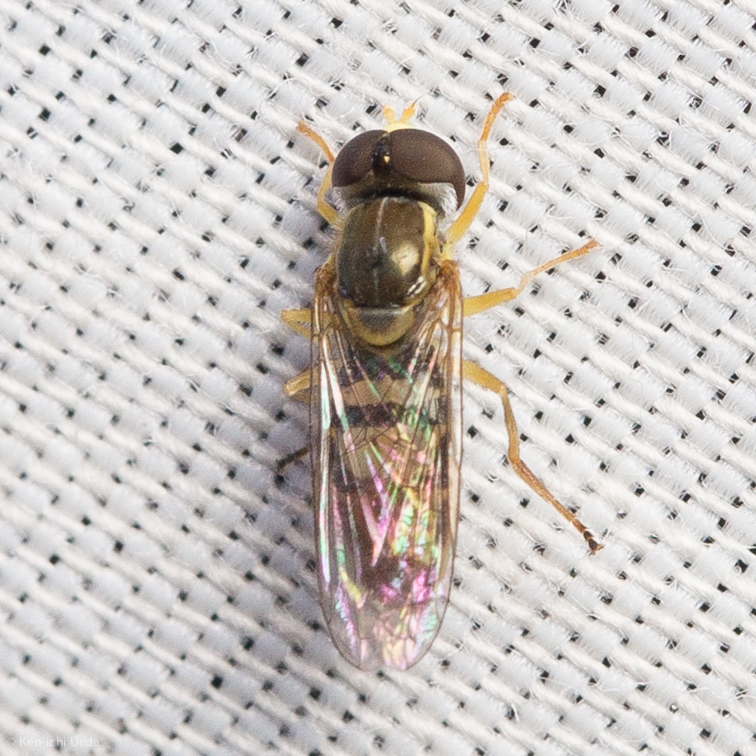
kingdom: Animalia
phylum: Arthropoda
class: Insecta
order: Diptera
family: Syrphidae
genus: Toxomerus
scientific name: Toxomerus marginatus
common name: Syrphid fly
